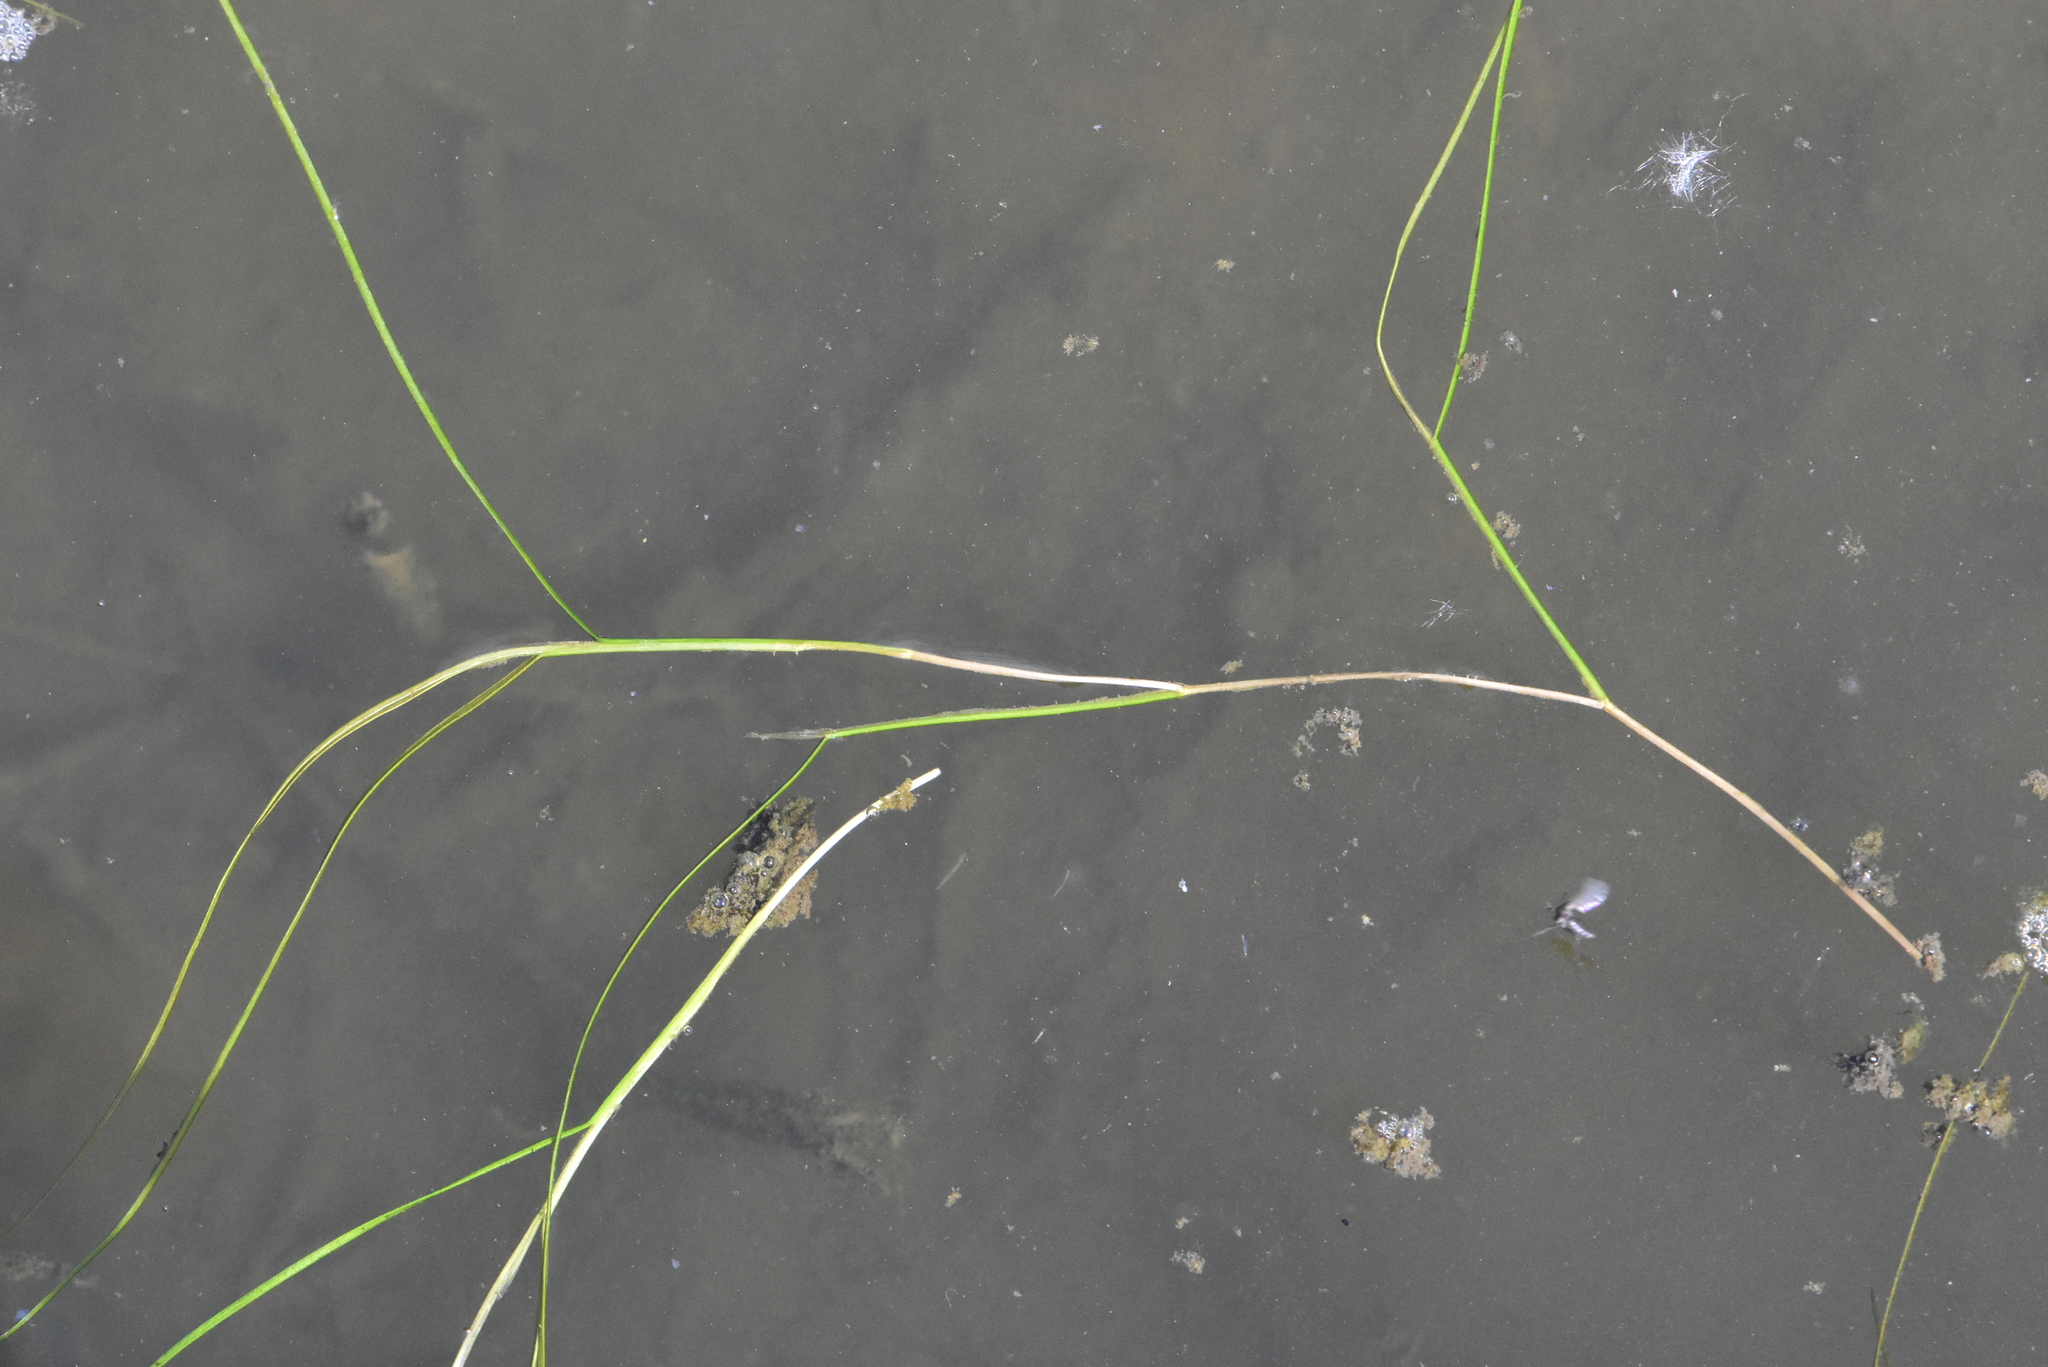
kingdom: Plantae
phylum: Tracheophyta
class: Liliopsida
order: Alismatales
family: Potamogetonaceae
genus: Stuckenia
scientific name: Stuckenia pectinata
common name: Sago pondweed
